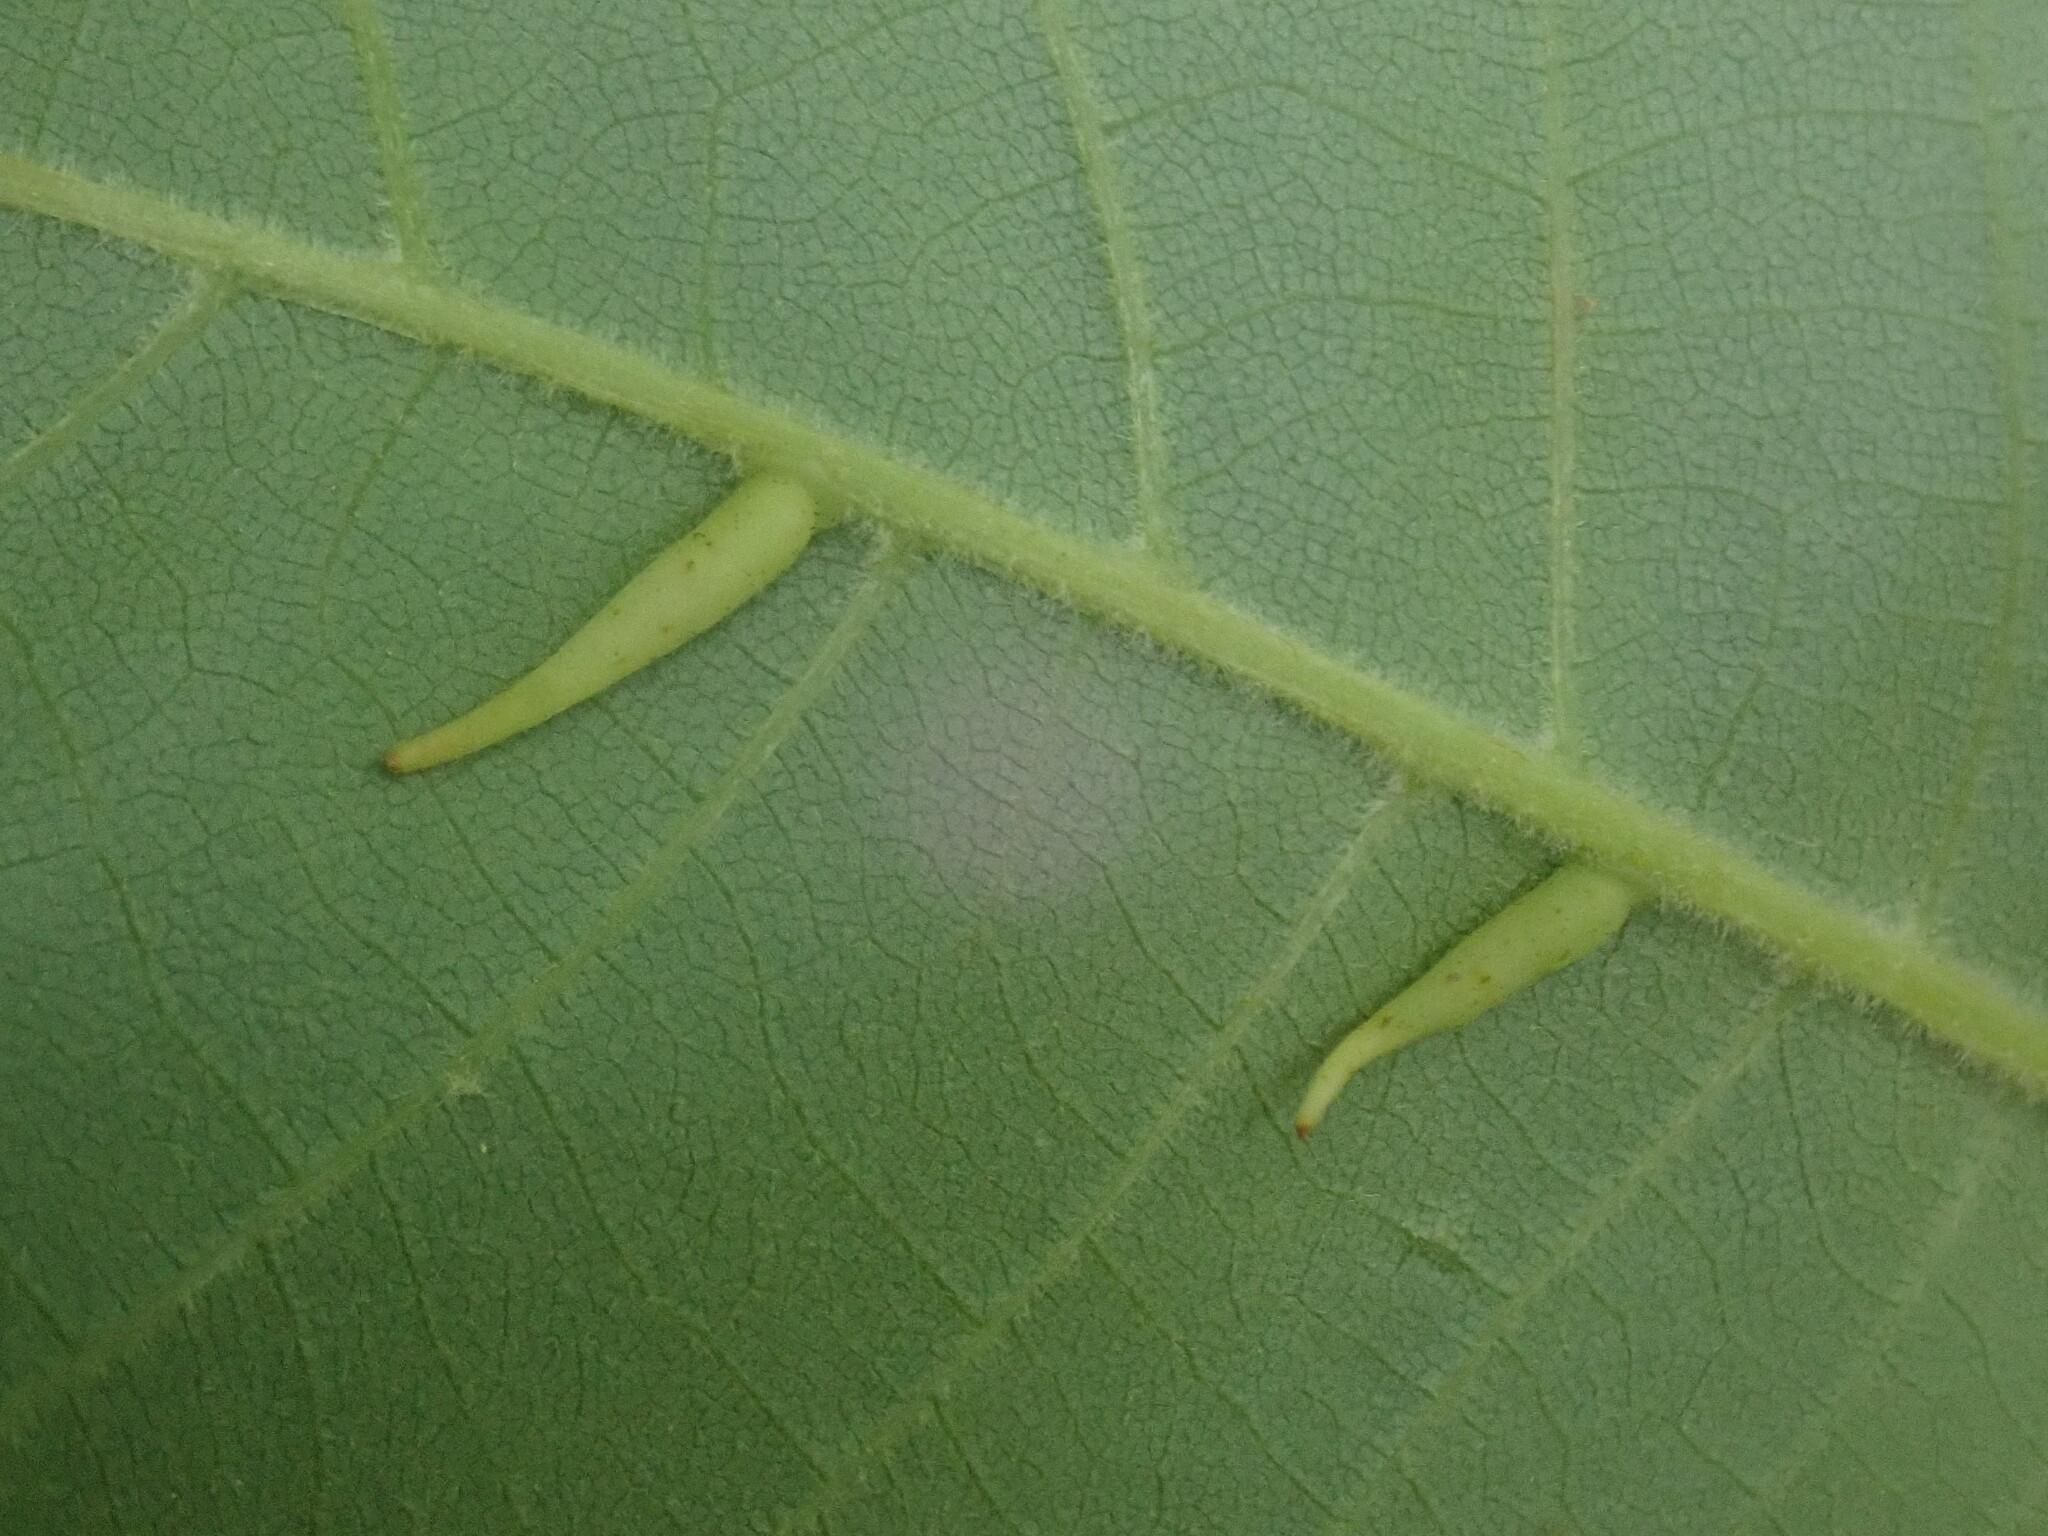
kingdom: Animalia
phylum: Arthropoda
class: Insecta
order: Diptera
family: Cecidomyiidae
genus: Caryomyia
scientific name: Caryomyia
